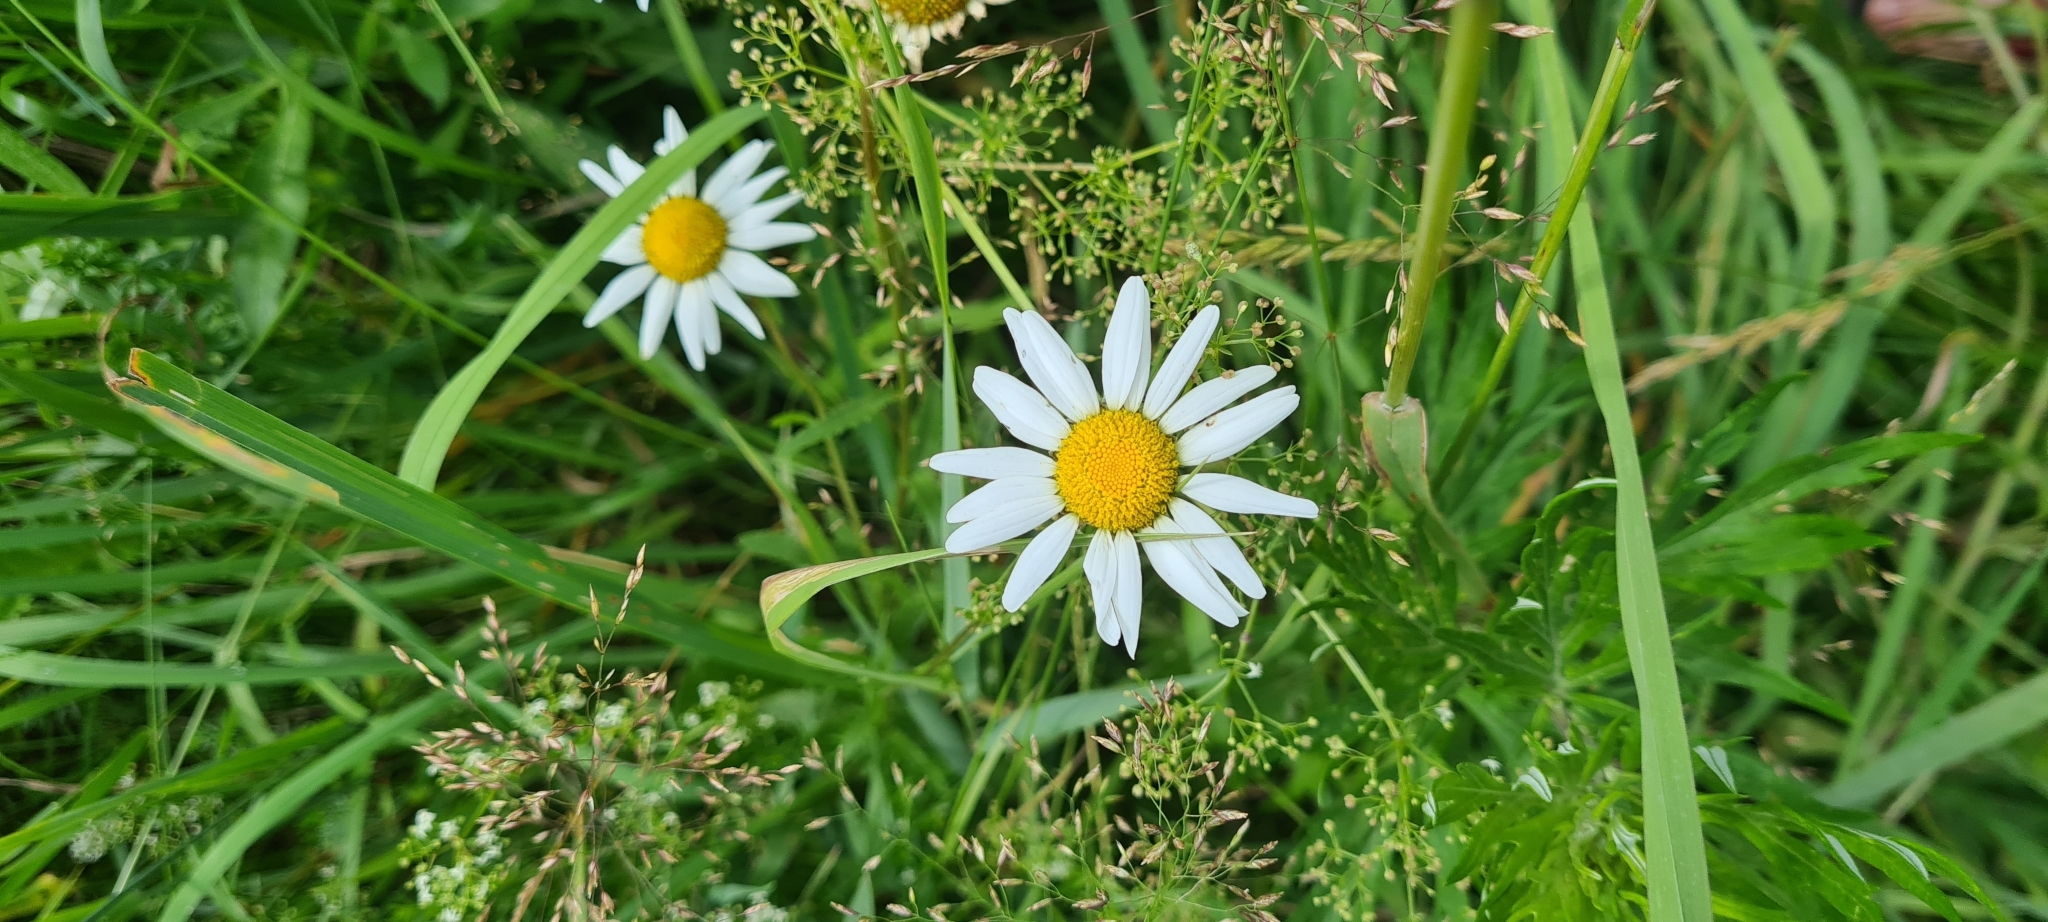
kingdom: Plantae
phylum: Tracheophyta
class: Magnoliopsida
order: Asterales
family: Asteraceae
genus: Leucanthemum
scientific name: Leucanthemum vulgare
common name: Oxeye daisy
